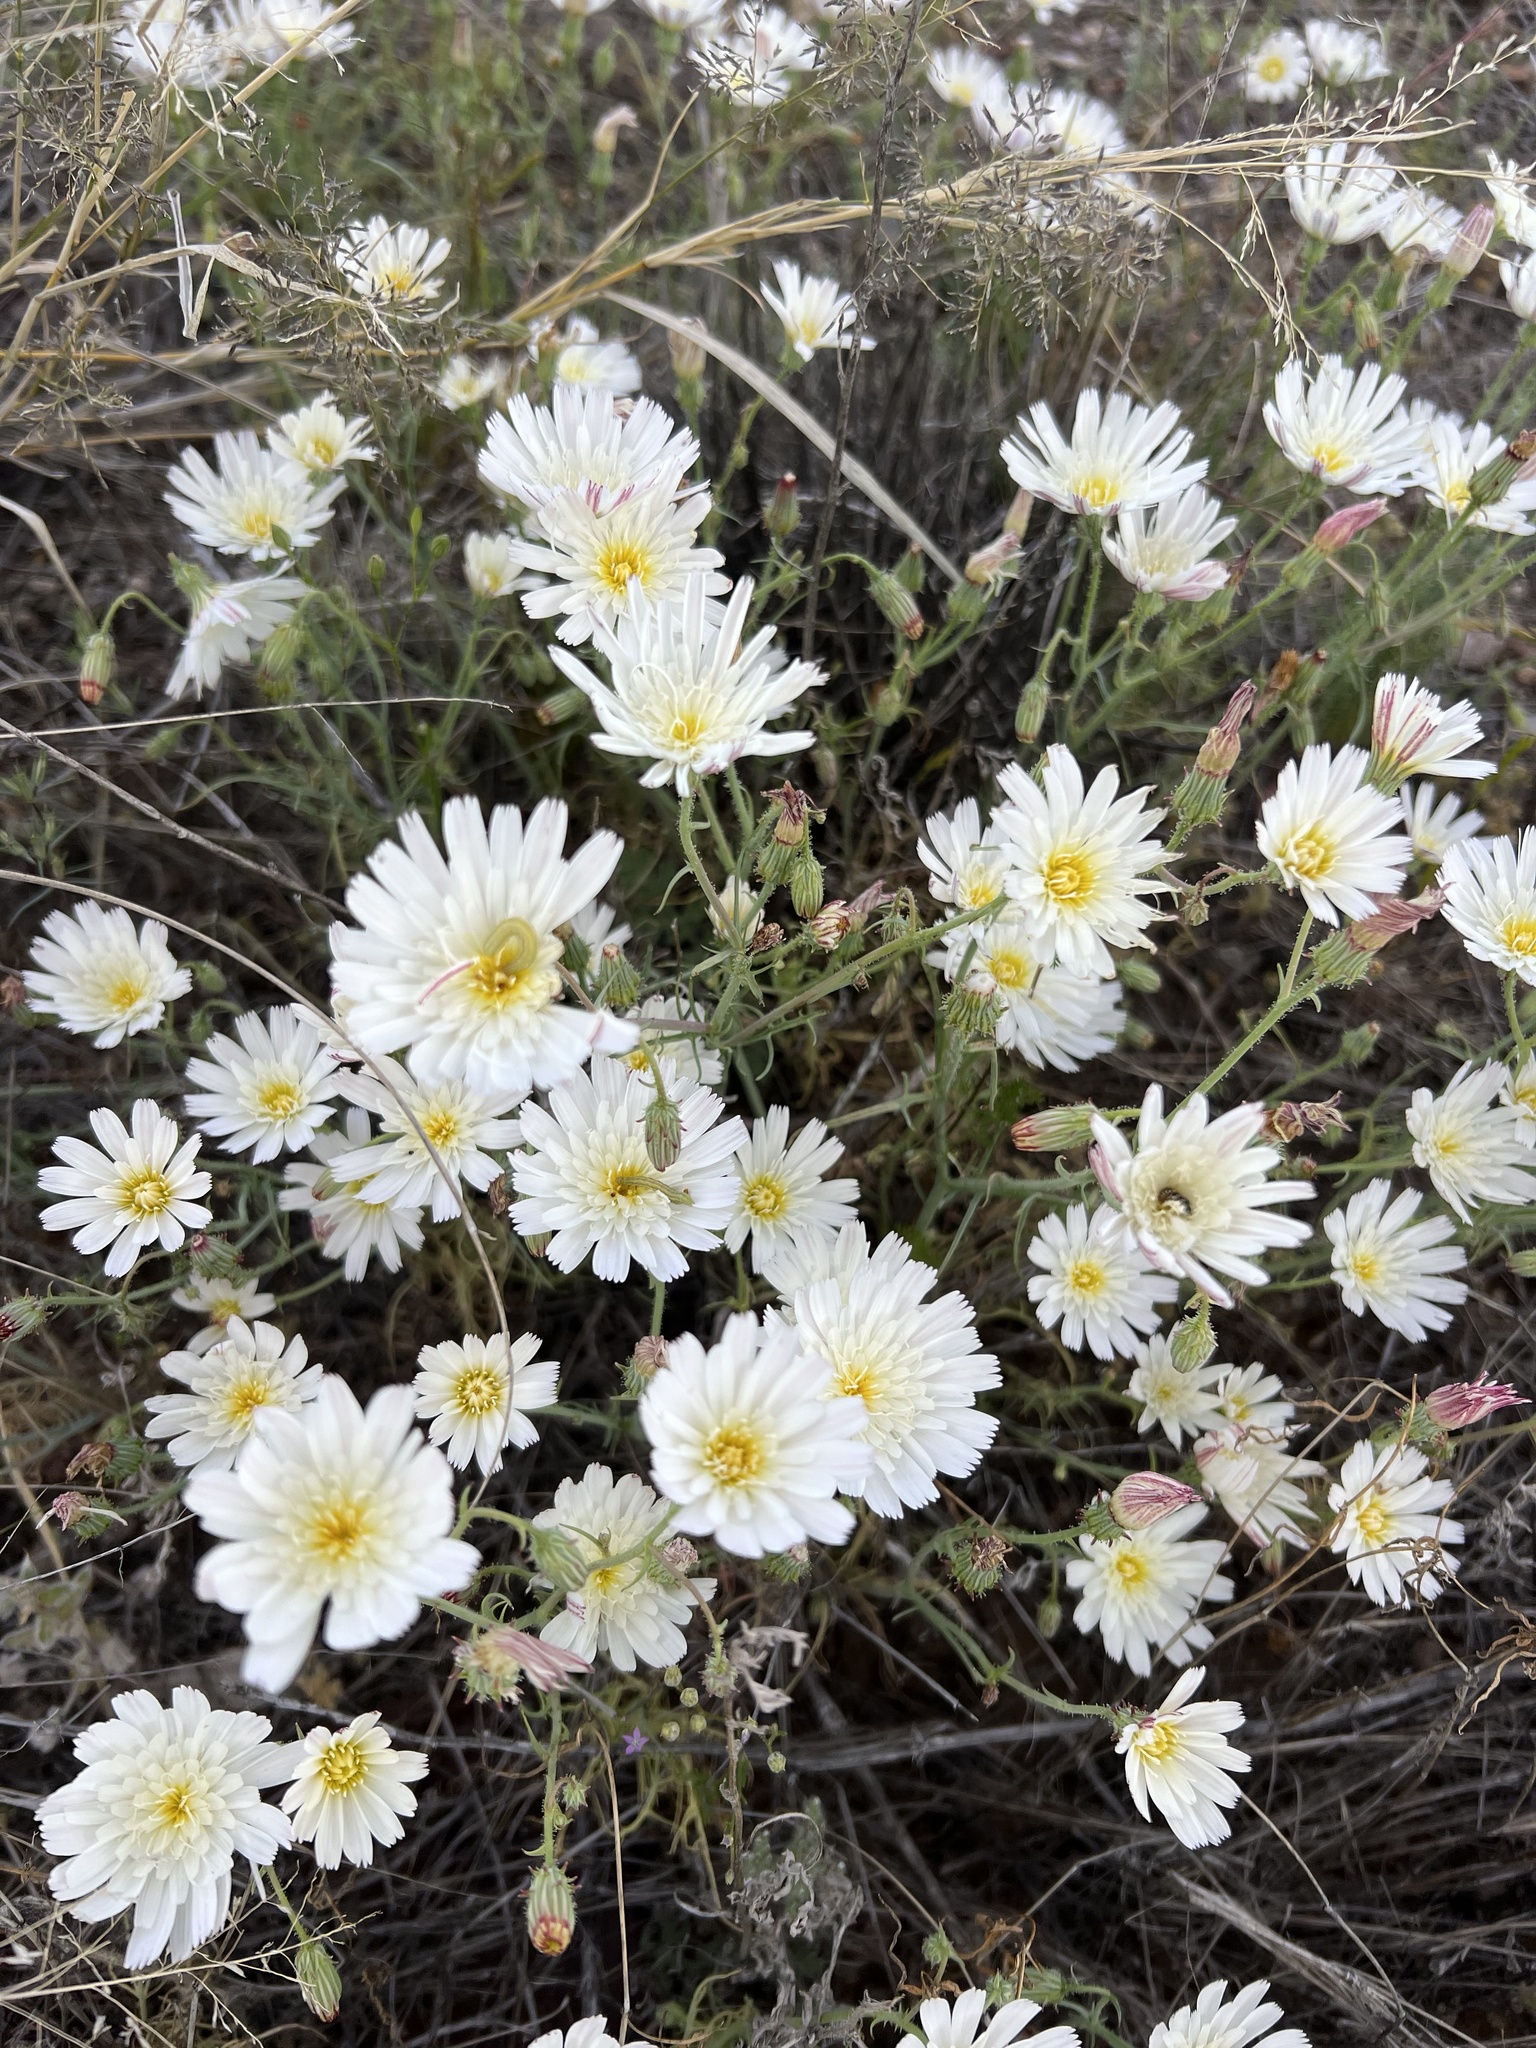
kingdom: Plantae
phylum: Tracheophyta
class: Magnoliopsida
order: Asterales
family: Asteraceae
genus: Calycoseris
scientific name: Calycoseris wrightii
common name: White tackstem
